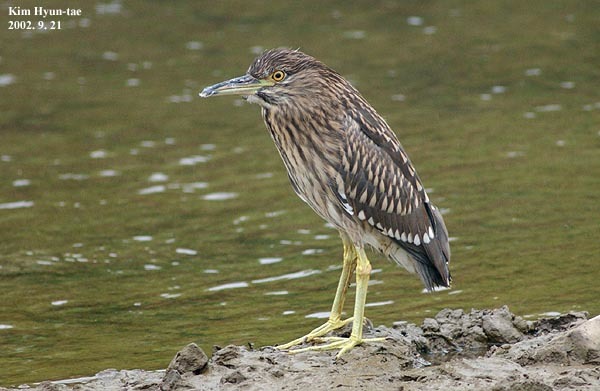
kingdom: Animalia
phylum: Chordata
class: Aves
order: Pelecaniformes
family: Ardeidae
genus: Nycticorax
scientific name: Nycticorax nycticorax
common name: Black-crowned night heron
